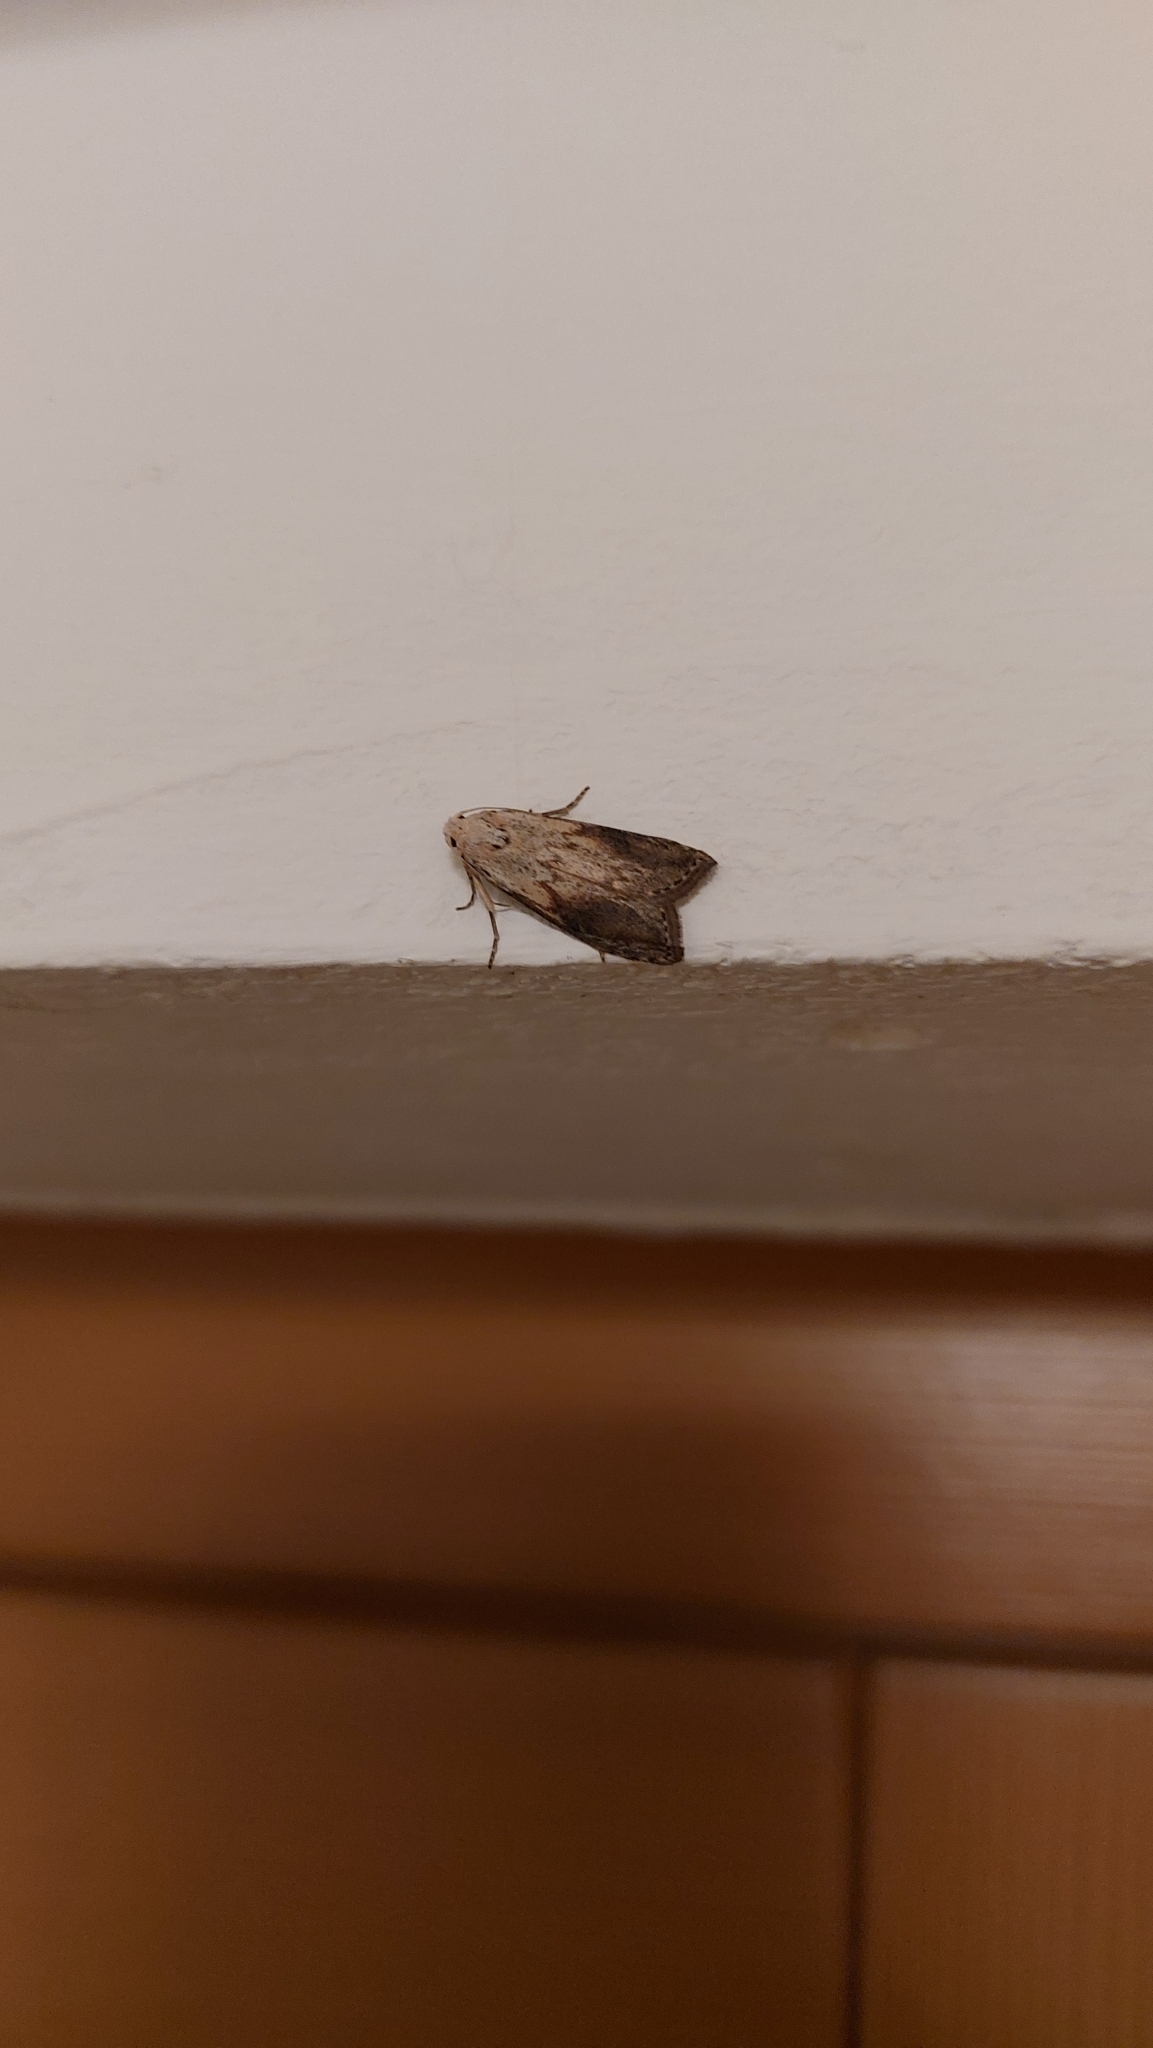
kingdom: Animalia
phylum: Arthropoda
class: Insecta
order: Lepidoptera
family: Pyralidae
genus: Aphomia
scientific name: Aphomia sociella
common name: Bee moth
